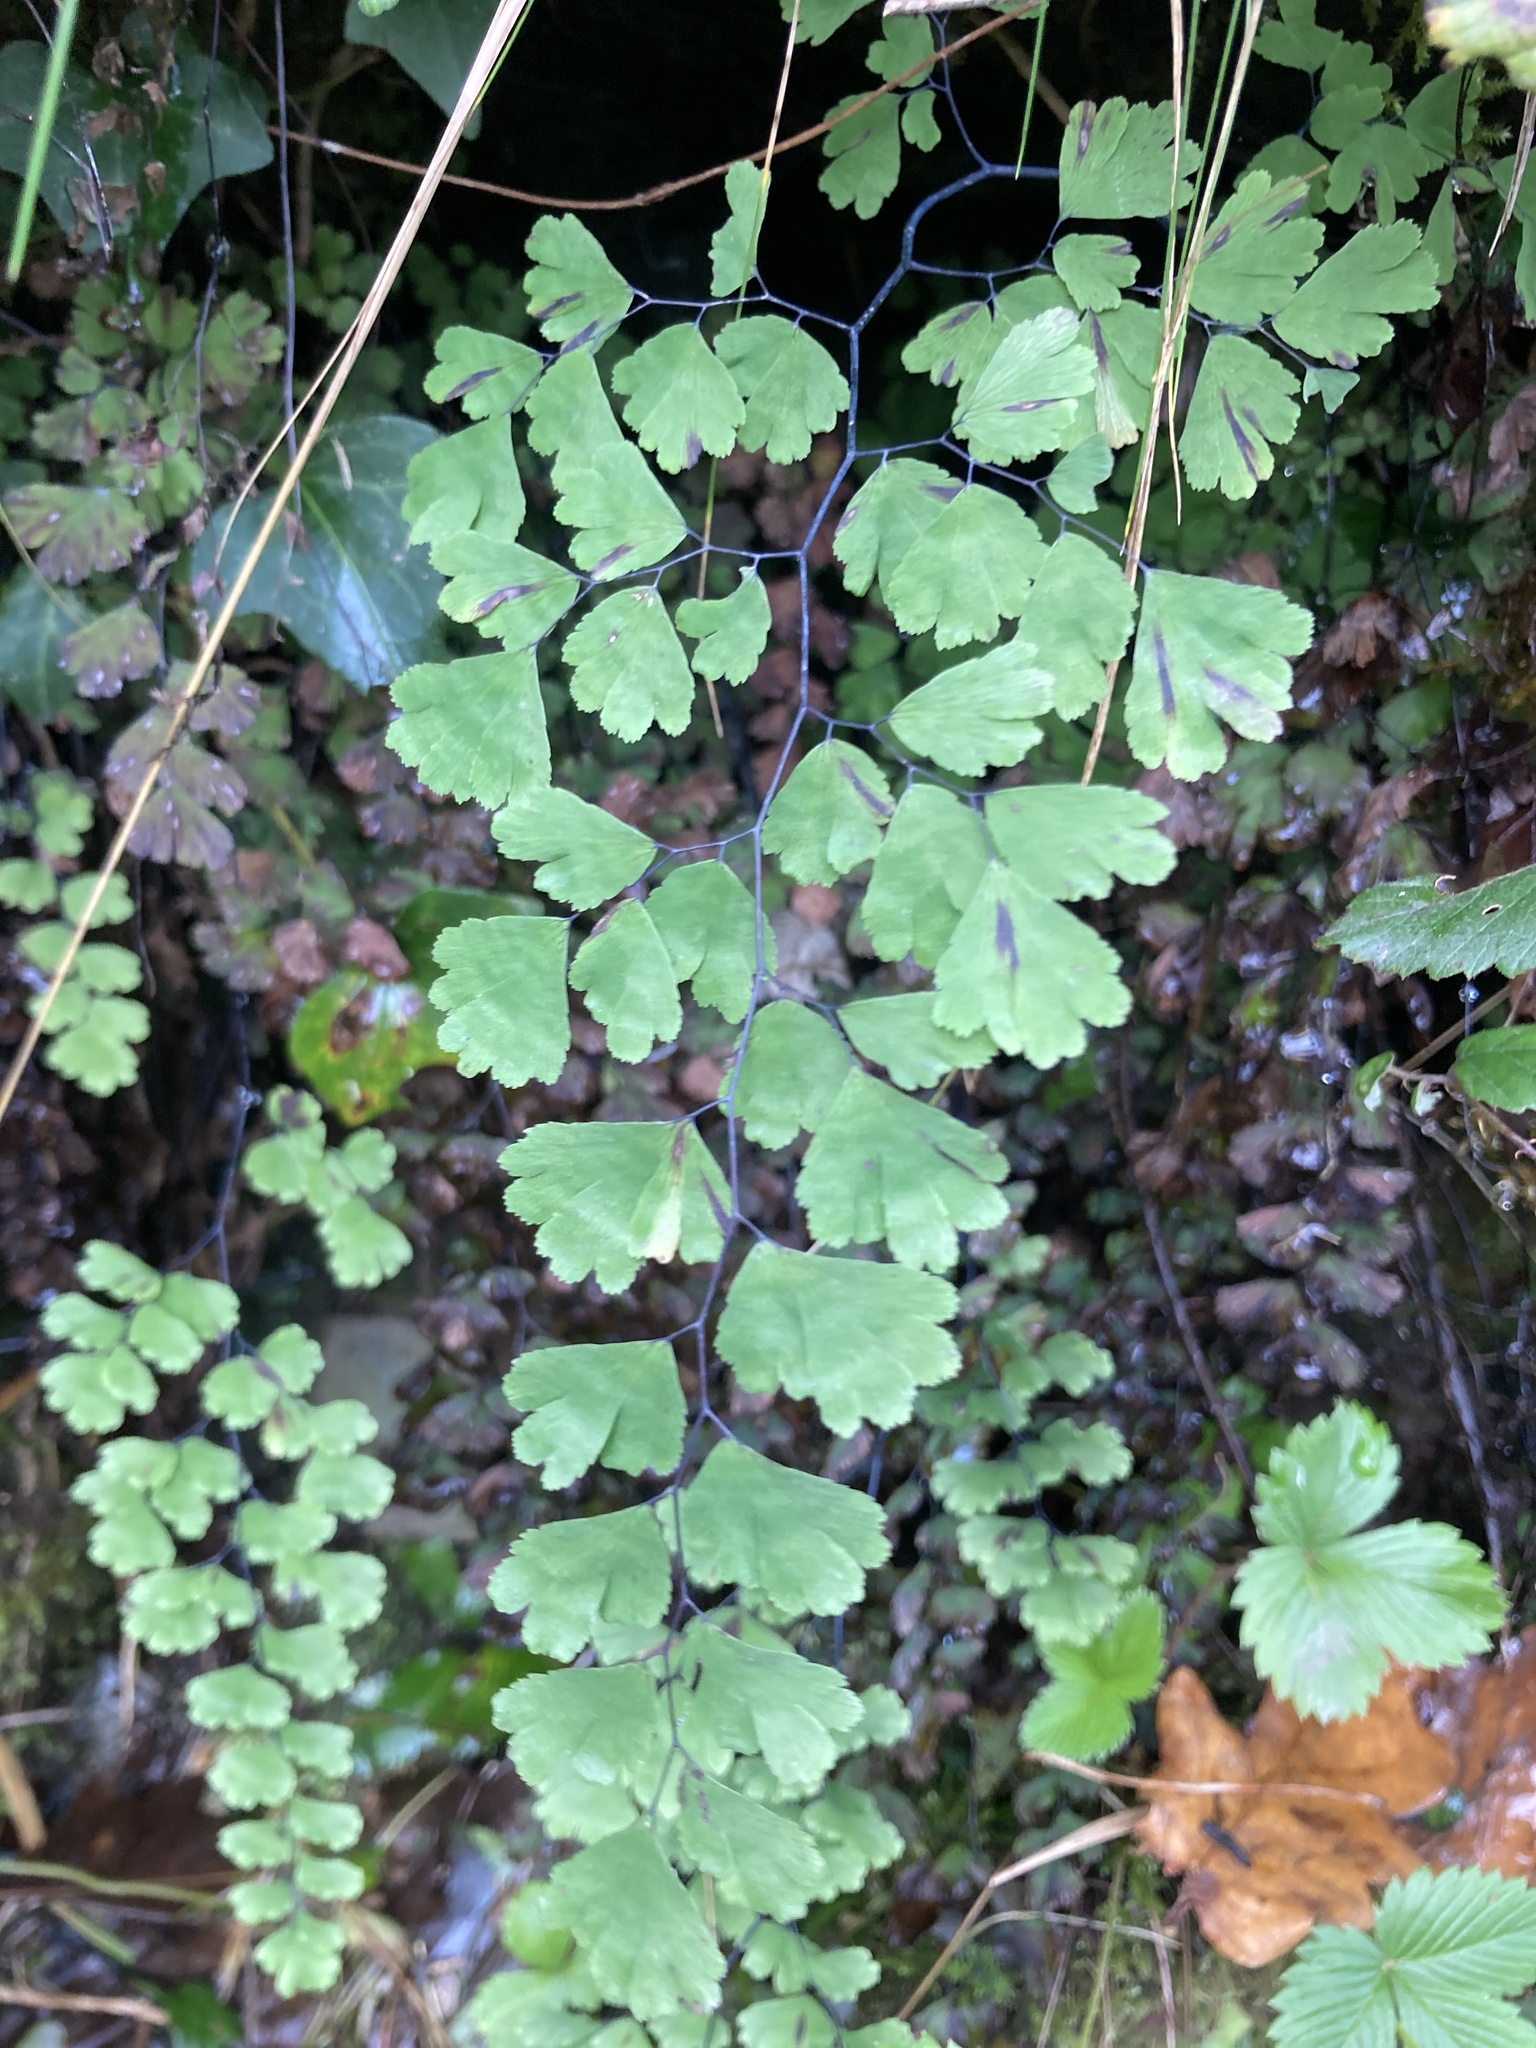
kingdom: Plantae
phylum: Tracheophyta
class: Polypodiopsida
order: Polypodiales
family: Pteridaceae
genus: Adiantum
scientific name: Adiantum capillus-veneris
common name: Maidenhair fern
